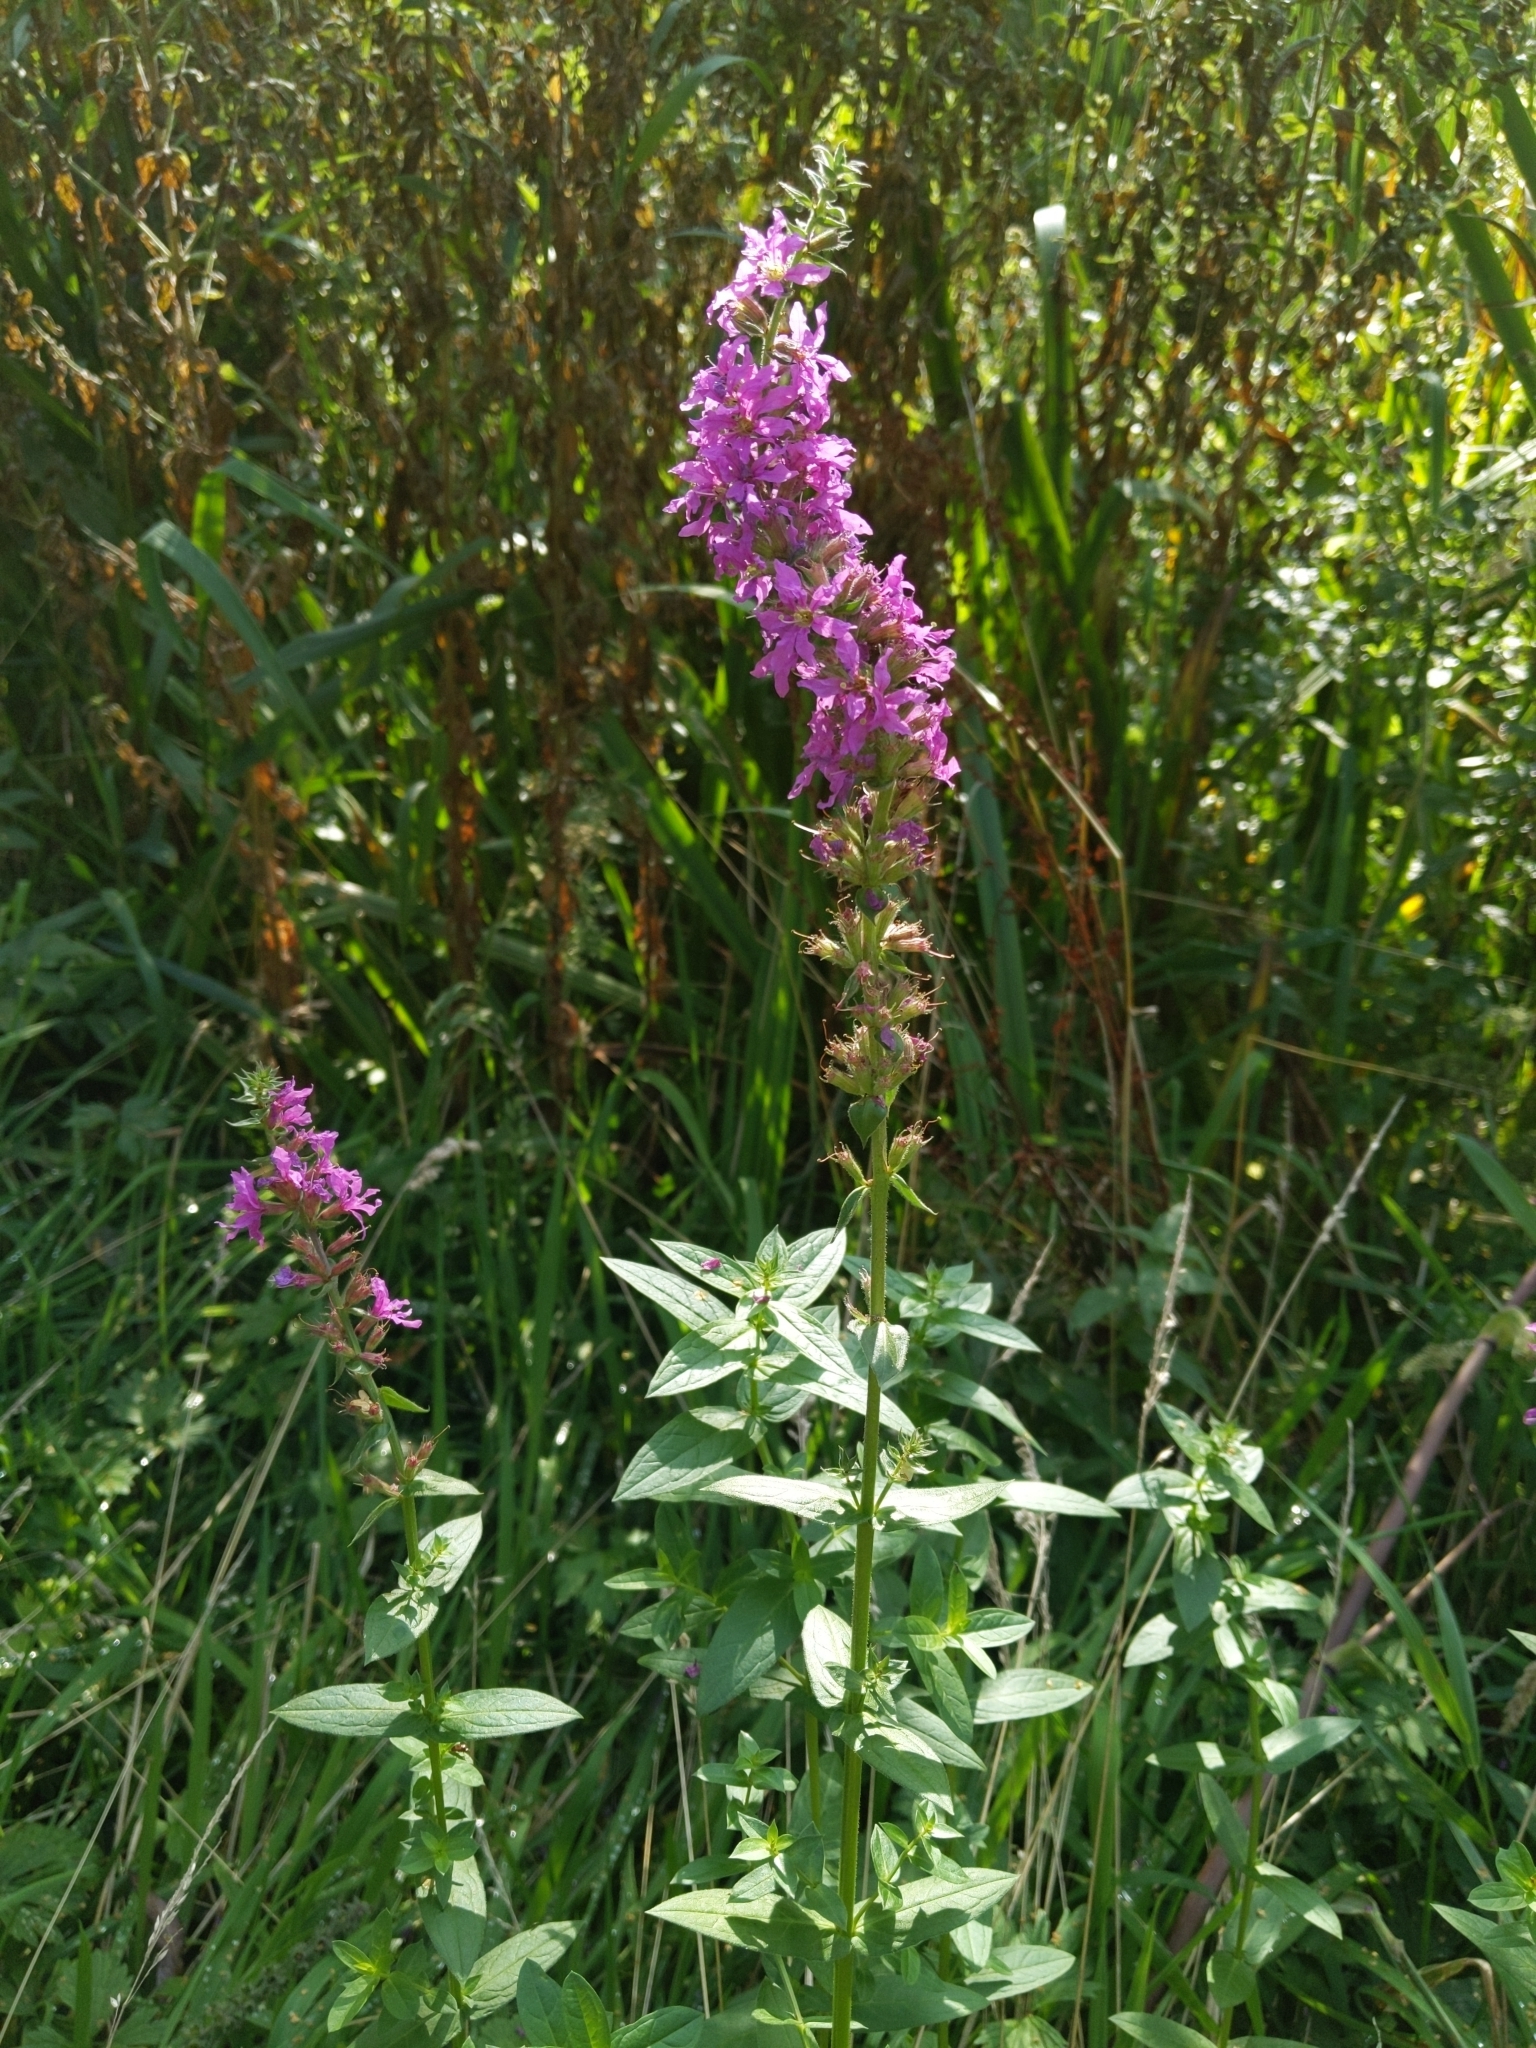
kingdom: Plantae
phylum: Tracheophyta
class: Magnoliopsida
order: Myrtales
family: Lythraceae
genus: Lythrum
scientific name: Lythrum salicaria
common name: Purple loosestrife
